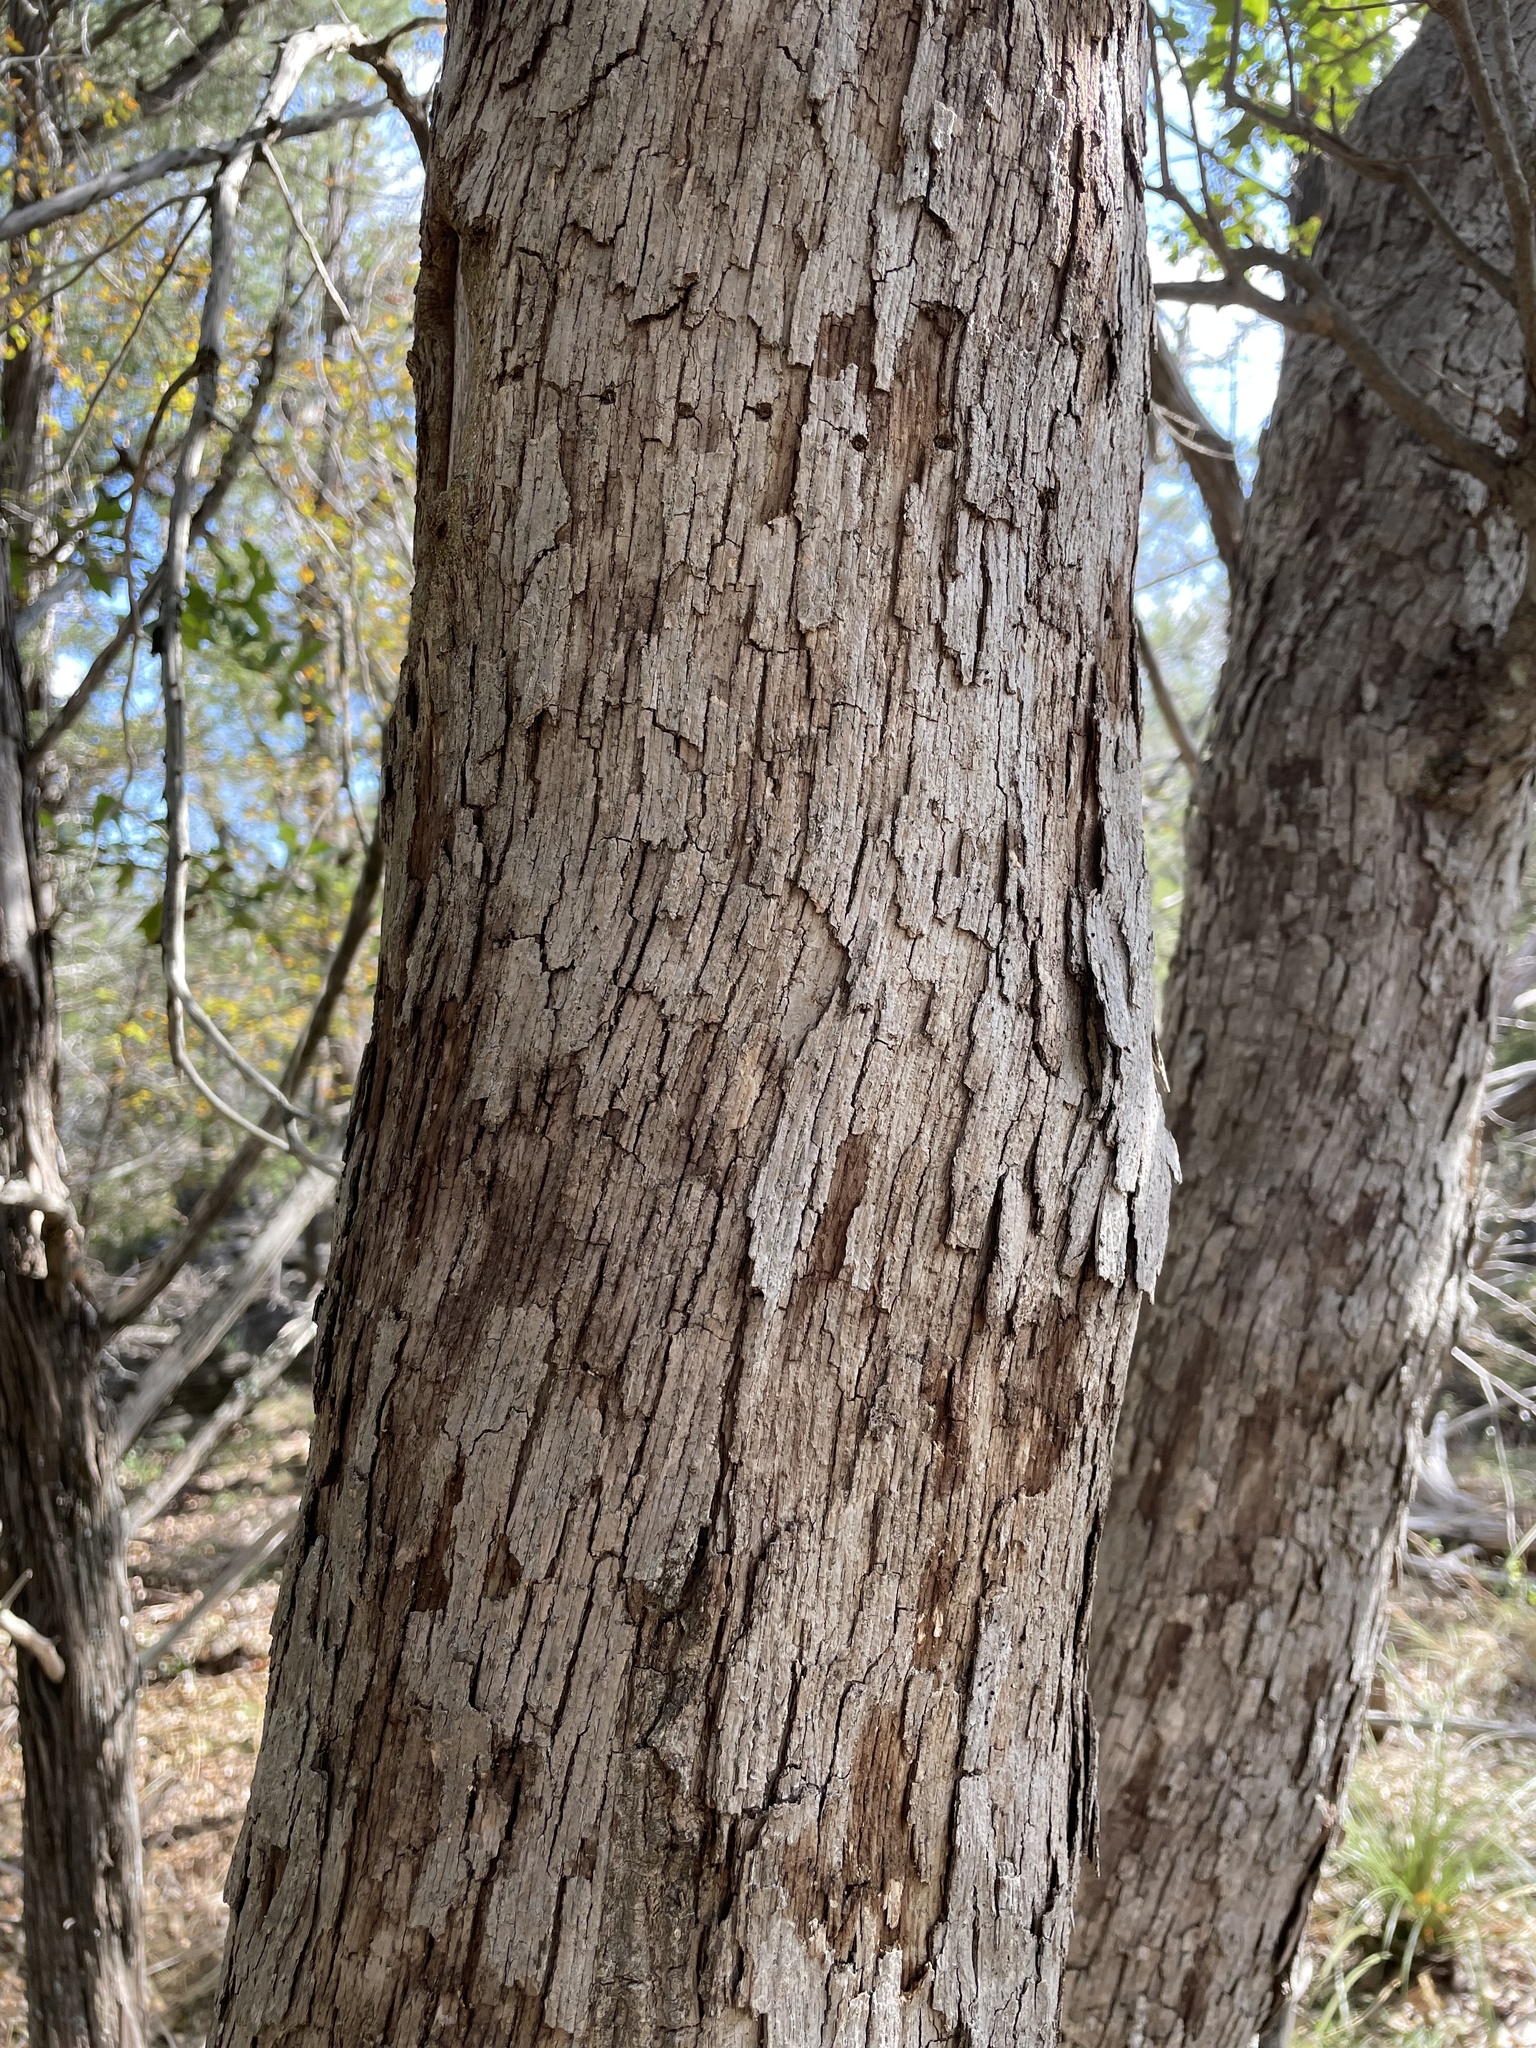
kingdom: Plantae
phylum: Tracheophyta
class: Magnoliopsida
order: Fagales
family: Fagaceae
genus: Quercus
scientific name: Quercus sinuata
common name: Durand oak
